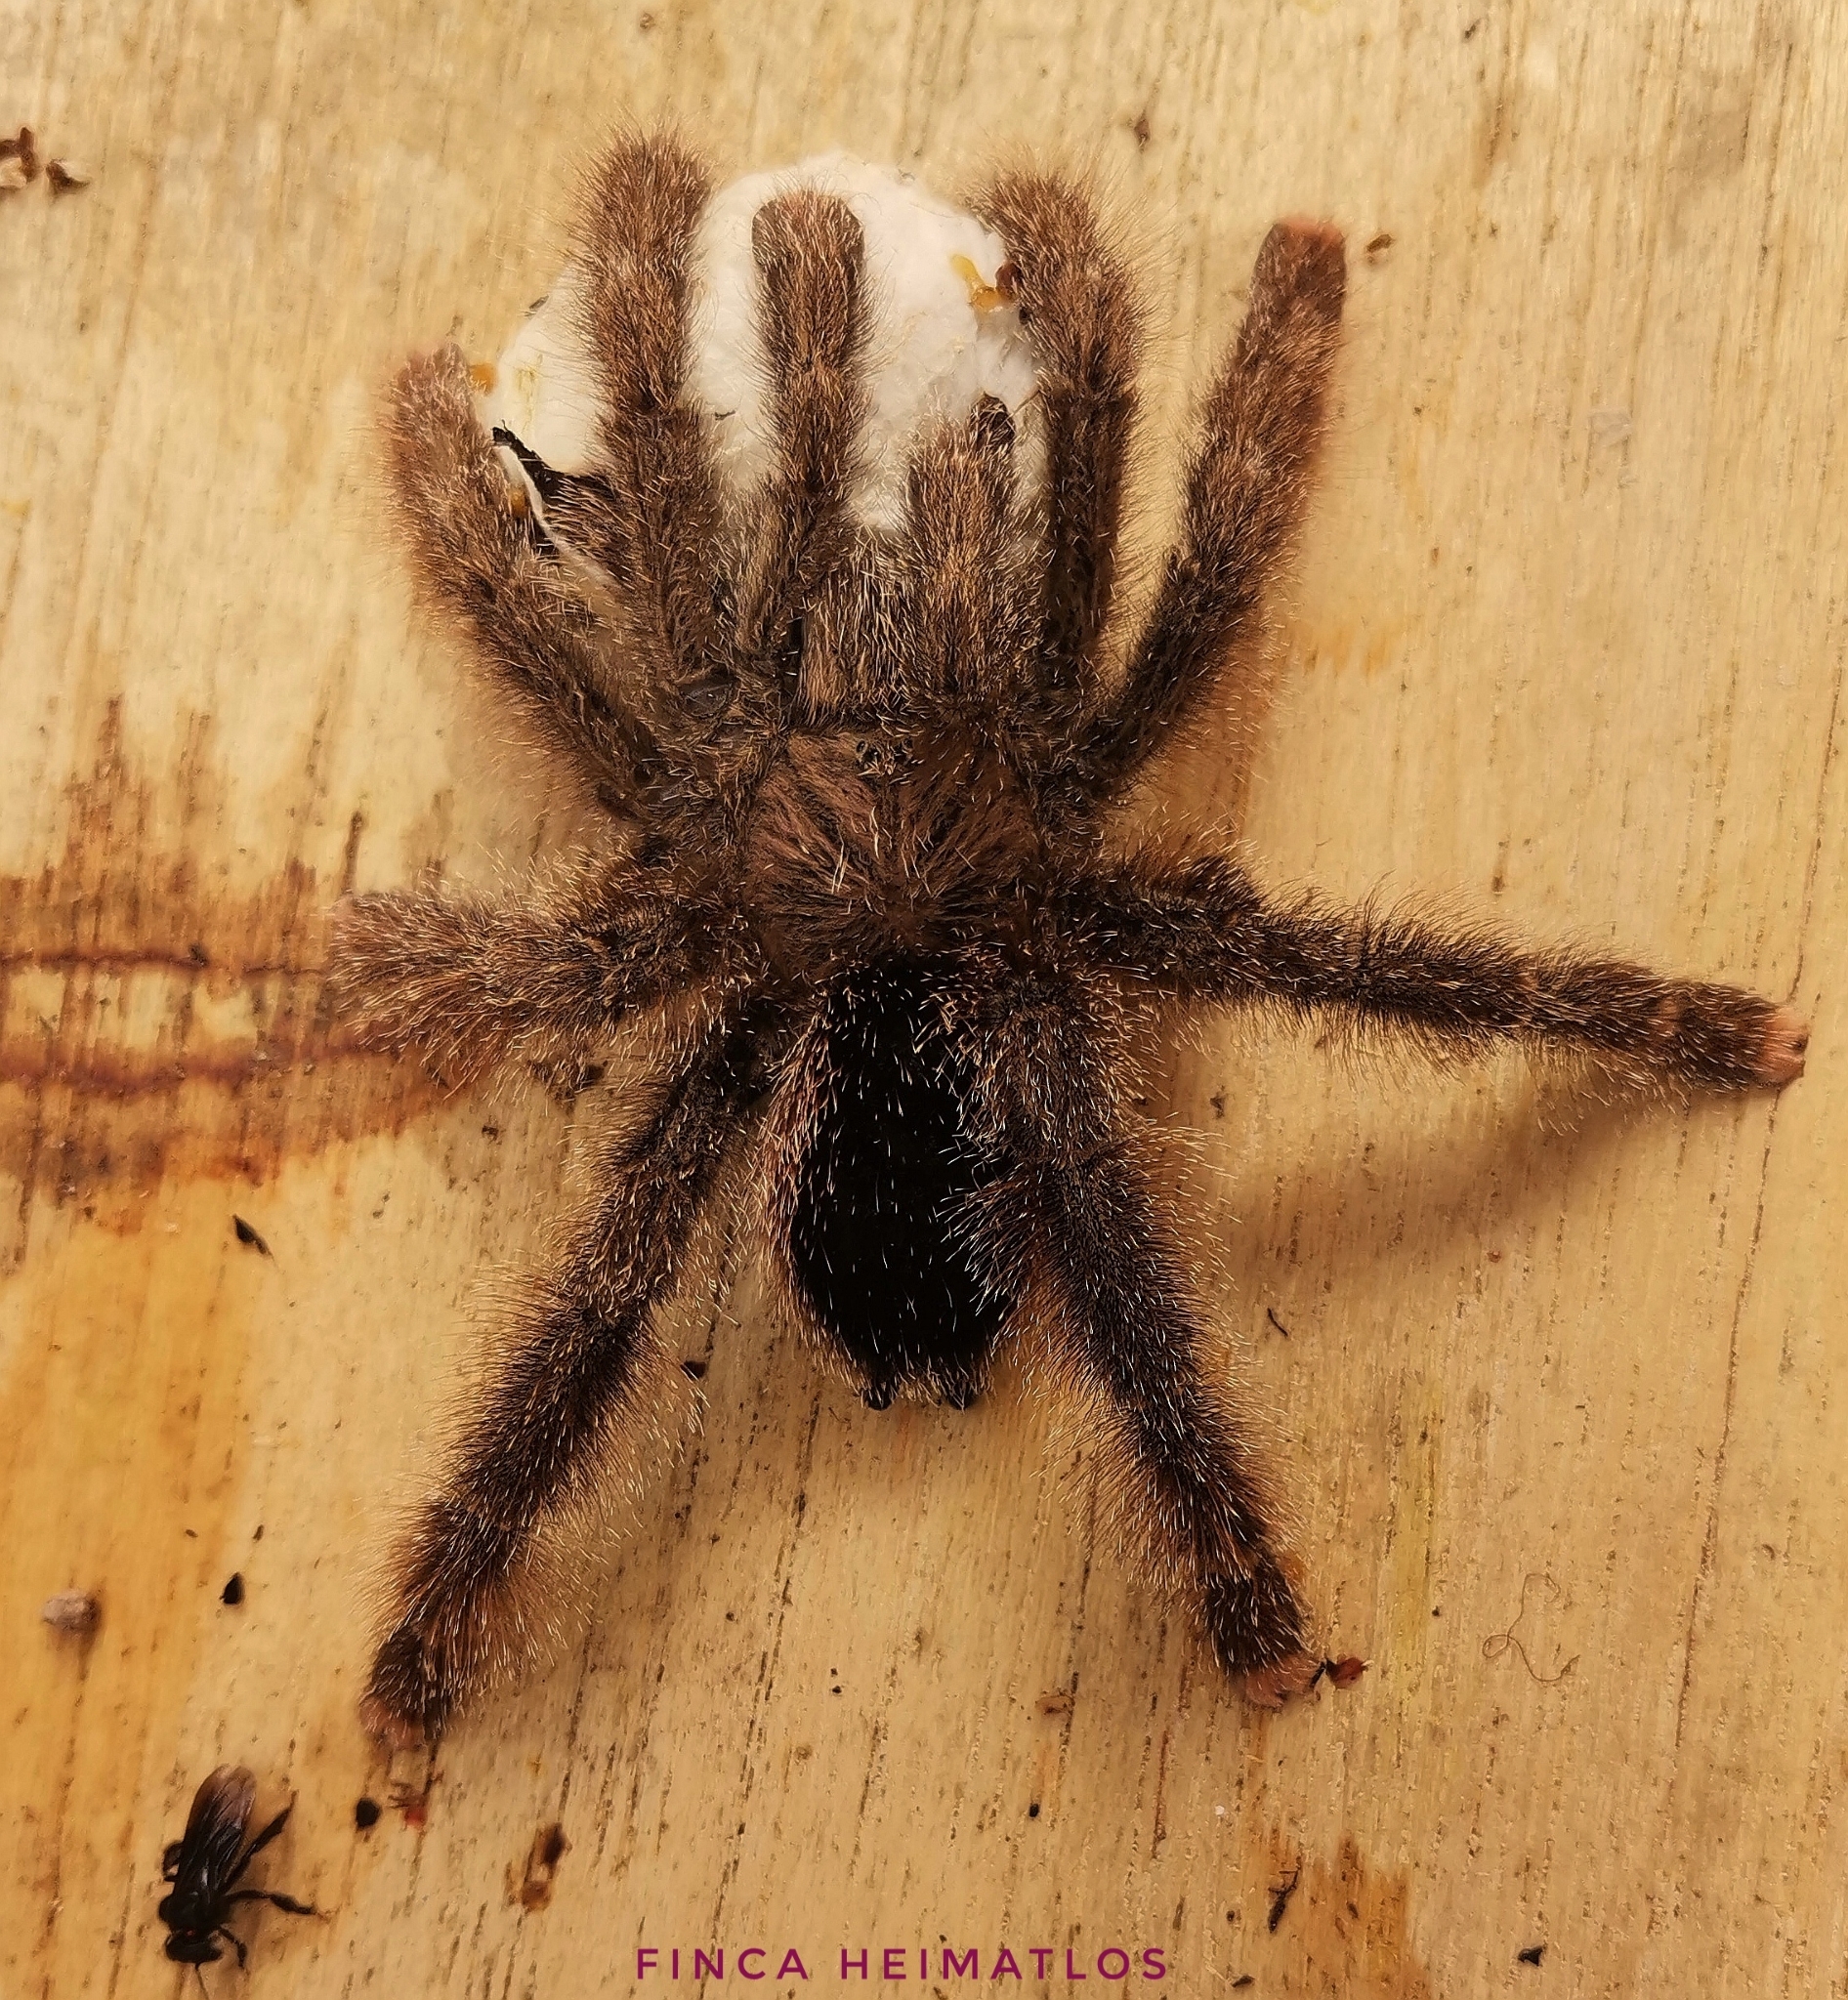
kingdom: Animalia
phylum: Arthropoda
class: Arachnida
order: Araneae
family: Theraphosidae
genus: Avicularia
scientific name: Avicularia juruensis
